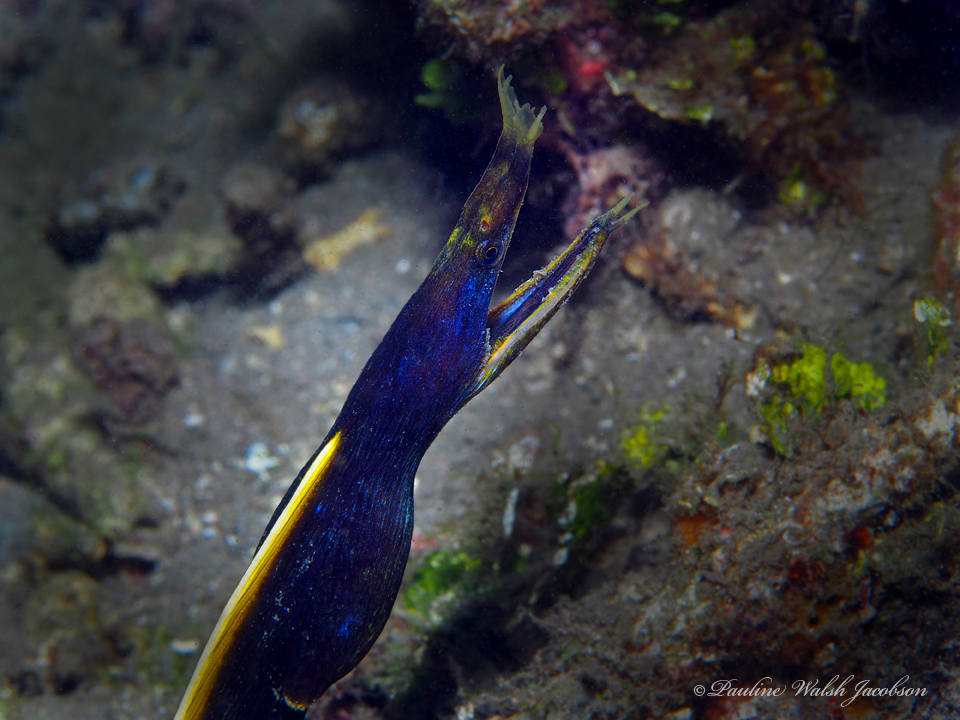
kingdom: Animalia
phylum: Chordata
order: Anguilliformes
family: Muraenidae
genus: Rhinomuraena
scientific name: Rhinomuraena quaesita
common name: Ribbon eel
